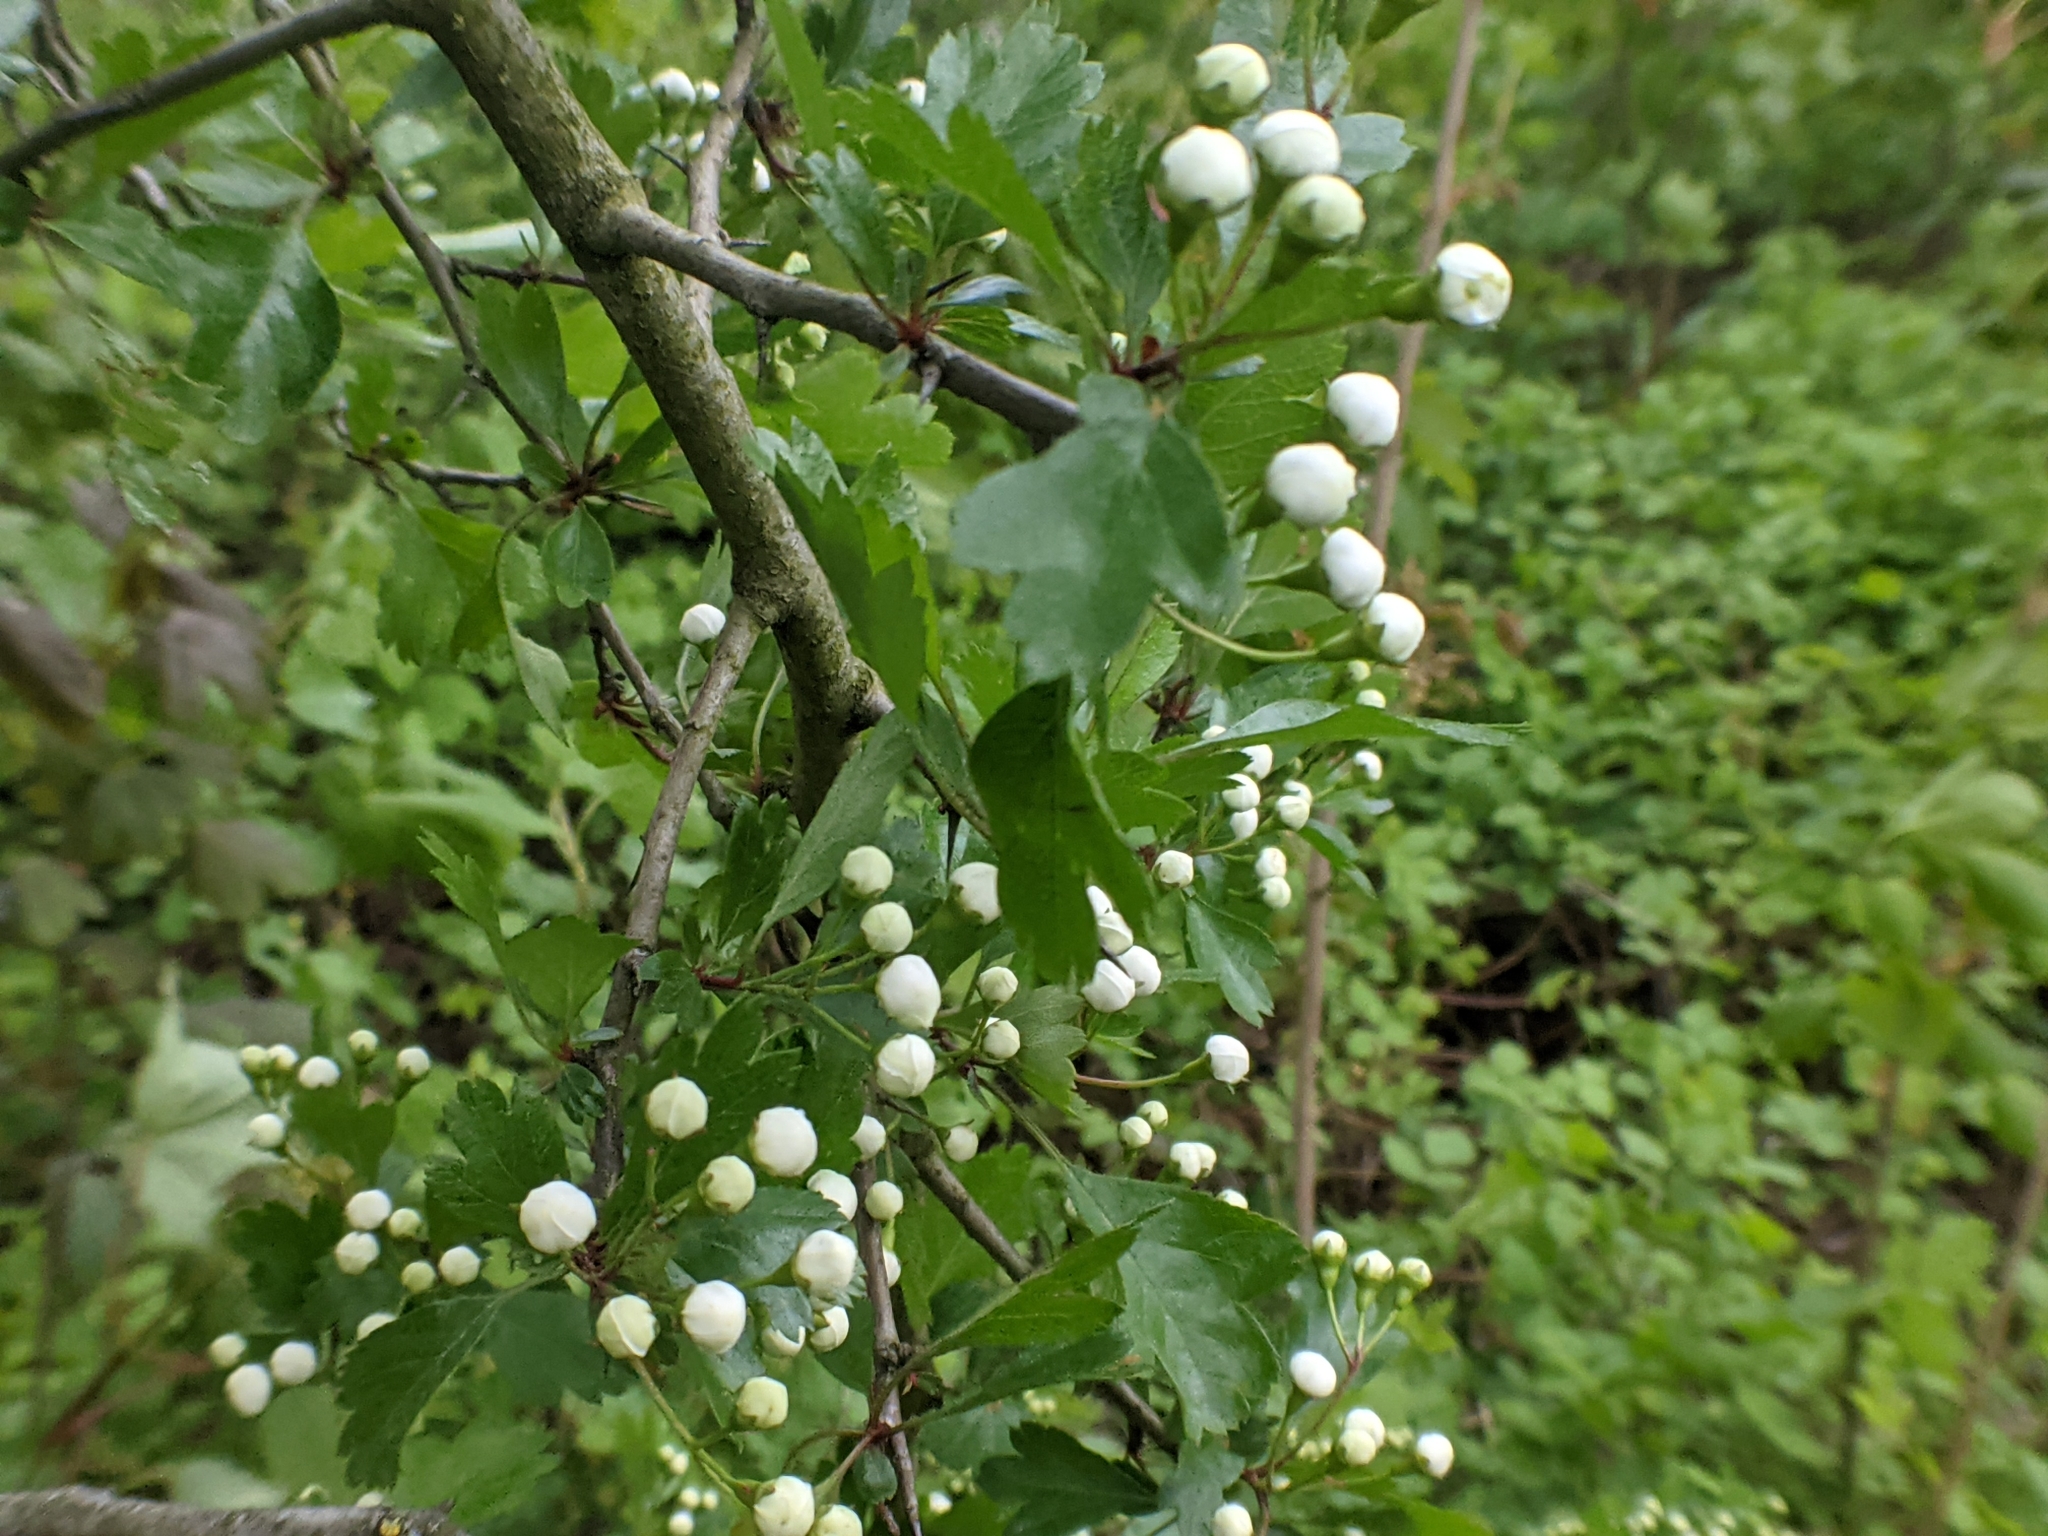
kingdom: Plantae
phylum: Tracheophyta
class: Magnoliopsida
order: Rosales
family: Rosaceae
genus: Crataegus
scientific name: Crataegus monogyna
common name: Hawthorn
